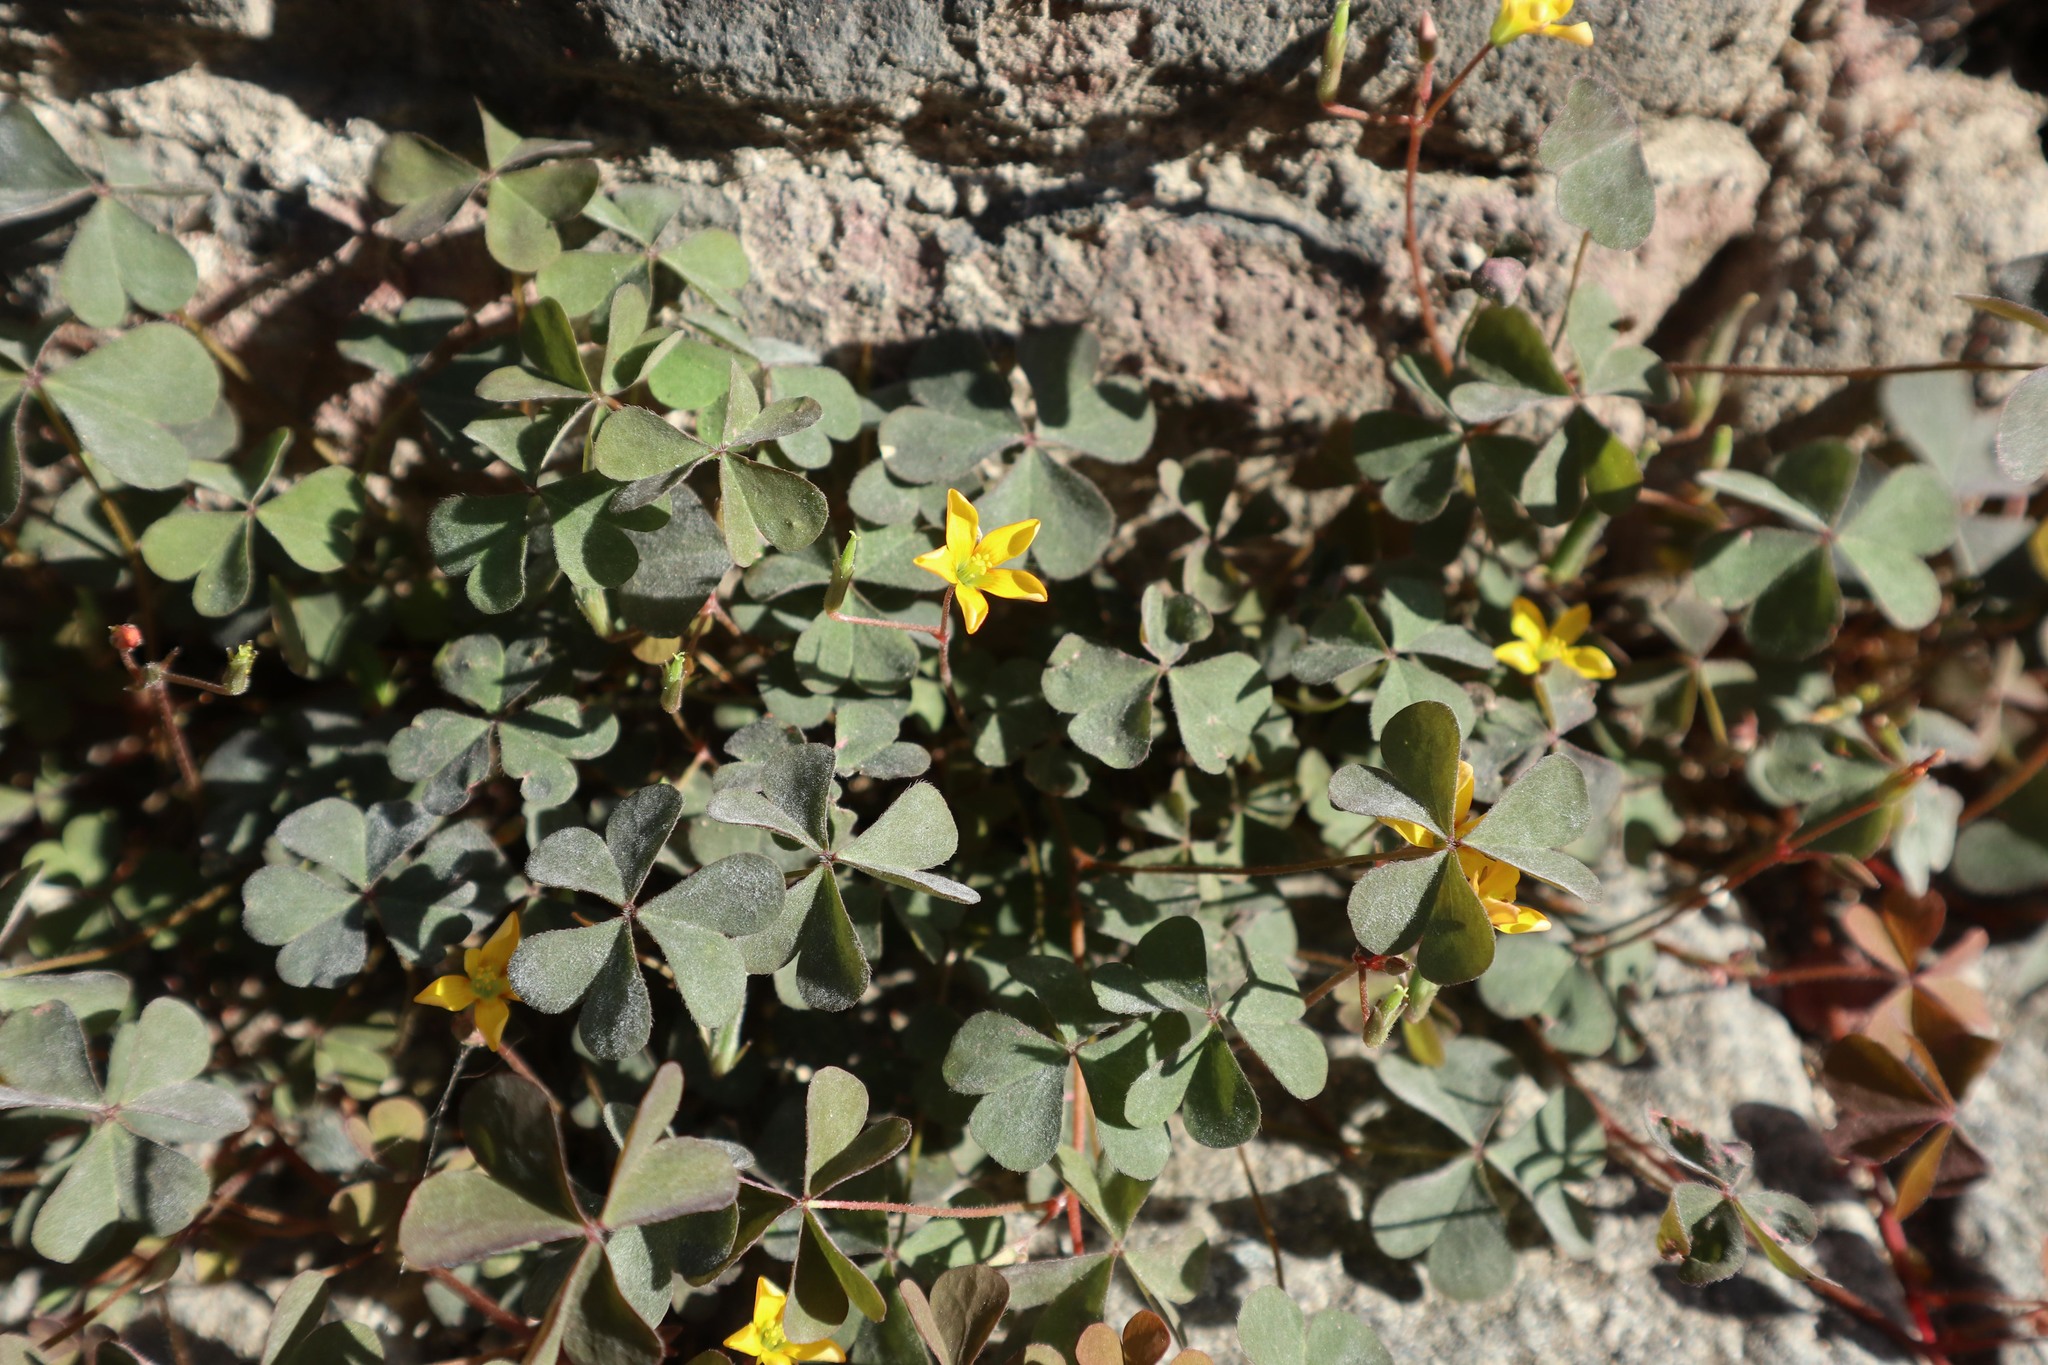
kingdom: Plantae
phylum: Tracheophyta
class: Magnoliopsida
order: Oxalidales
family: Oxalidaceae
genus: Oxalis
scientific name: Oxalis corniculata
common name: Procumbent yellow-sorrel
